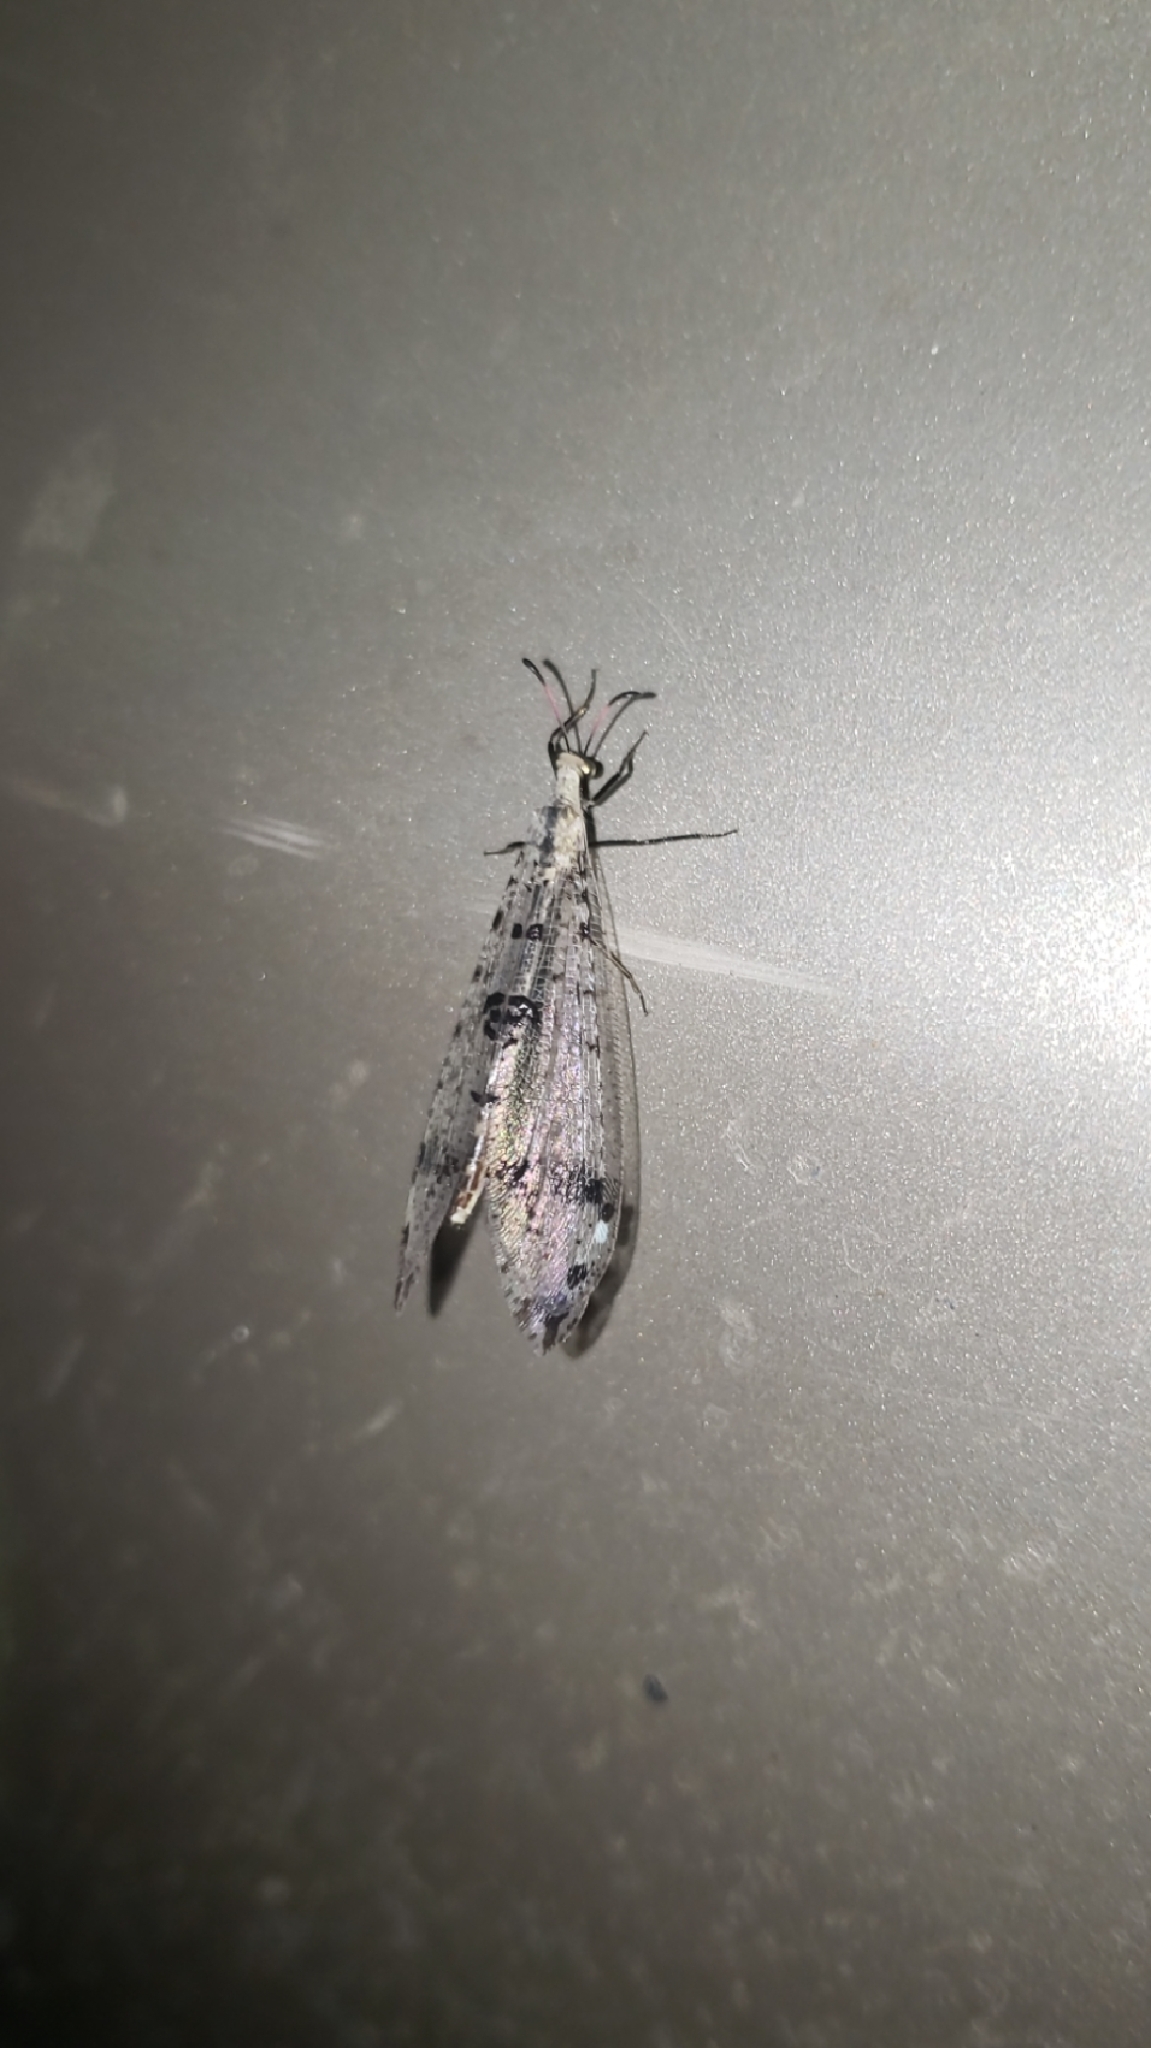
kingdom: Animalia
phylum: Arthropoda
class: Insecta
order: Neuroptera
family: Myrmeleontidae
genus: Dendroleon
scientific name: Dendroleon obsoletus
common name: Eastern spotted-winged antlion
